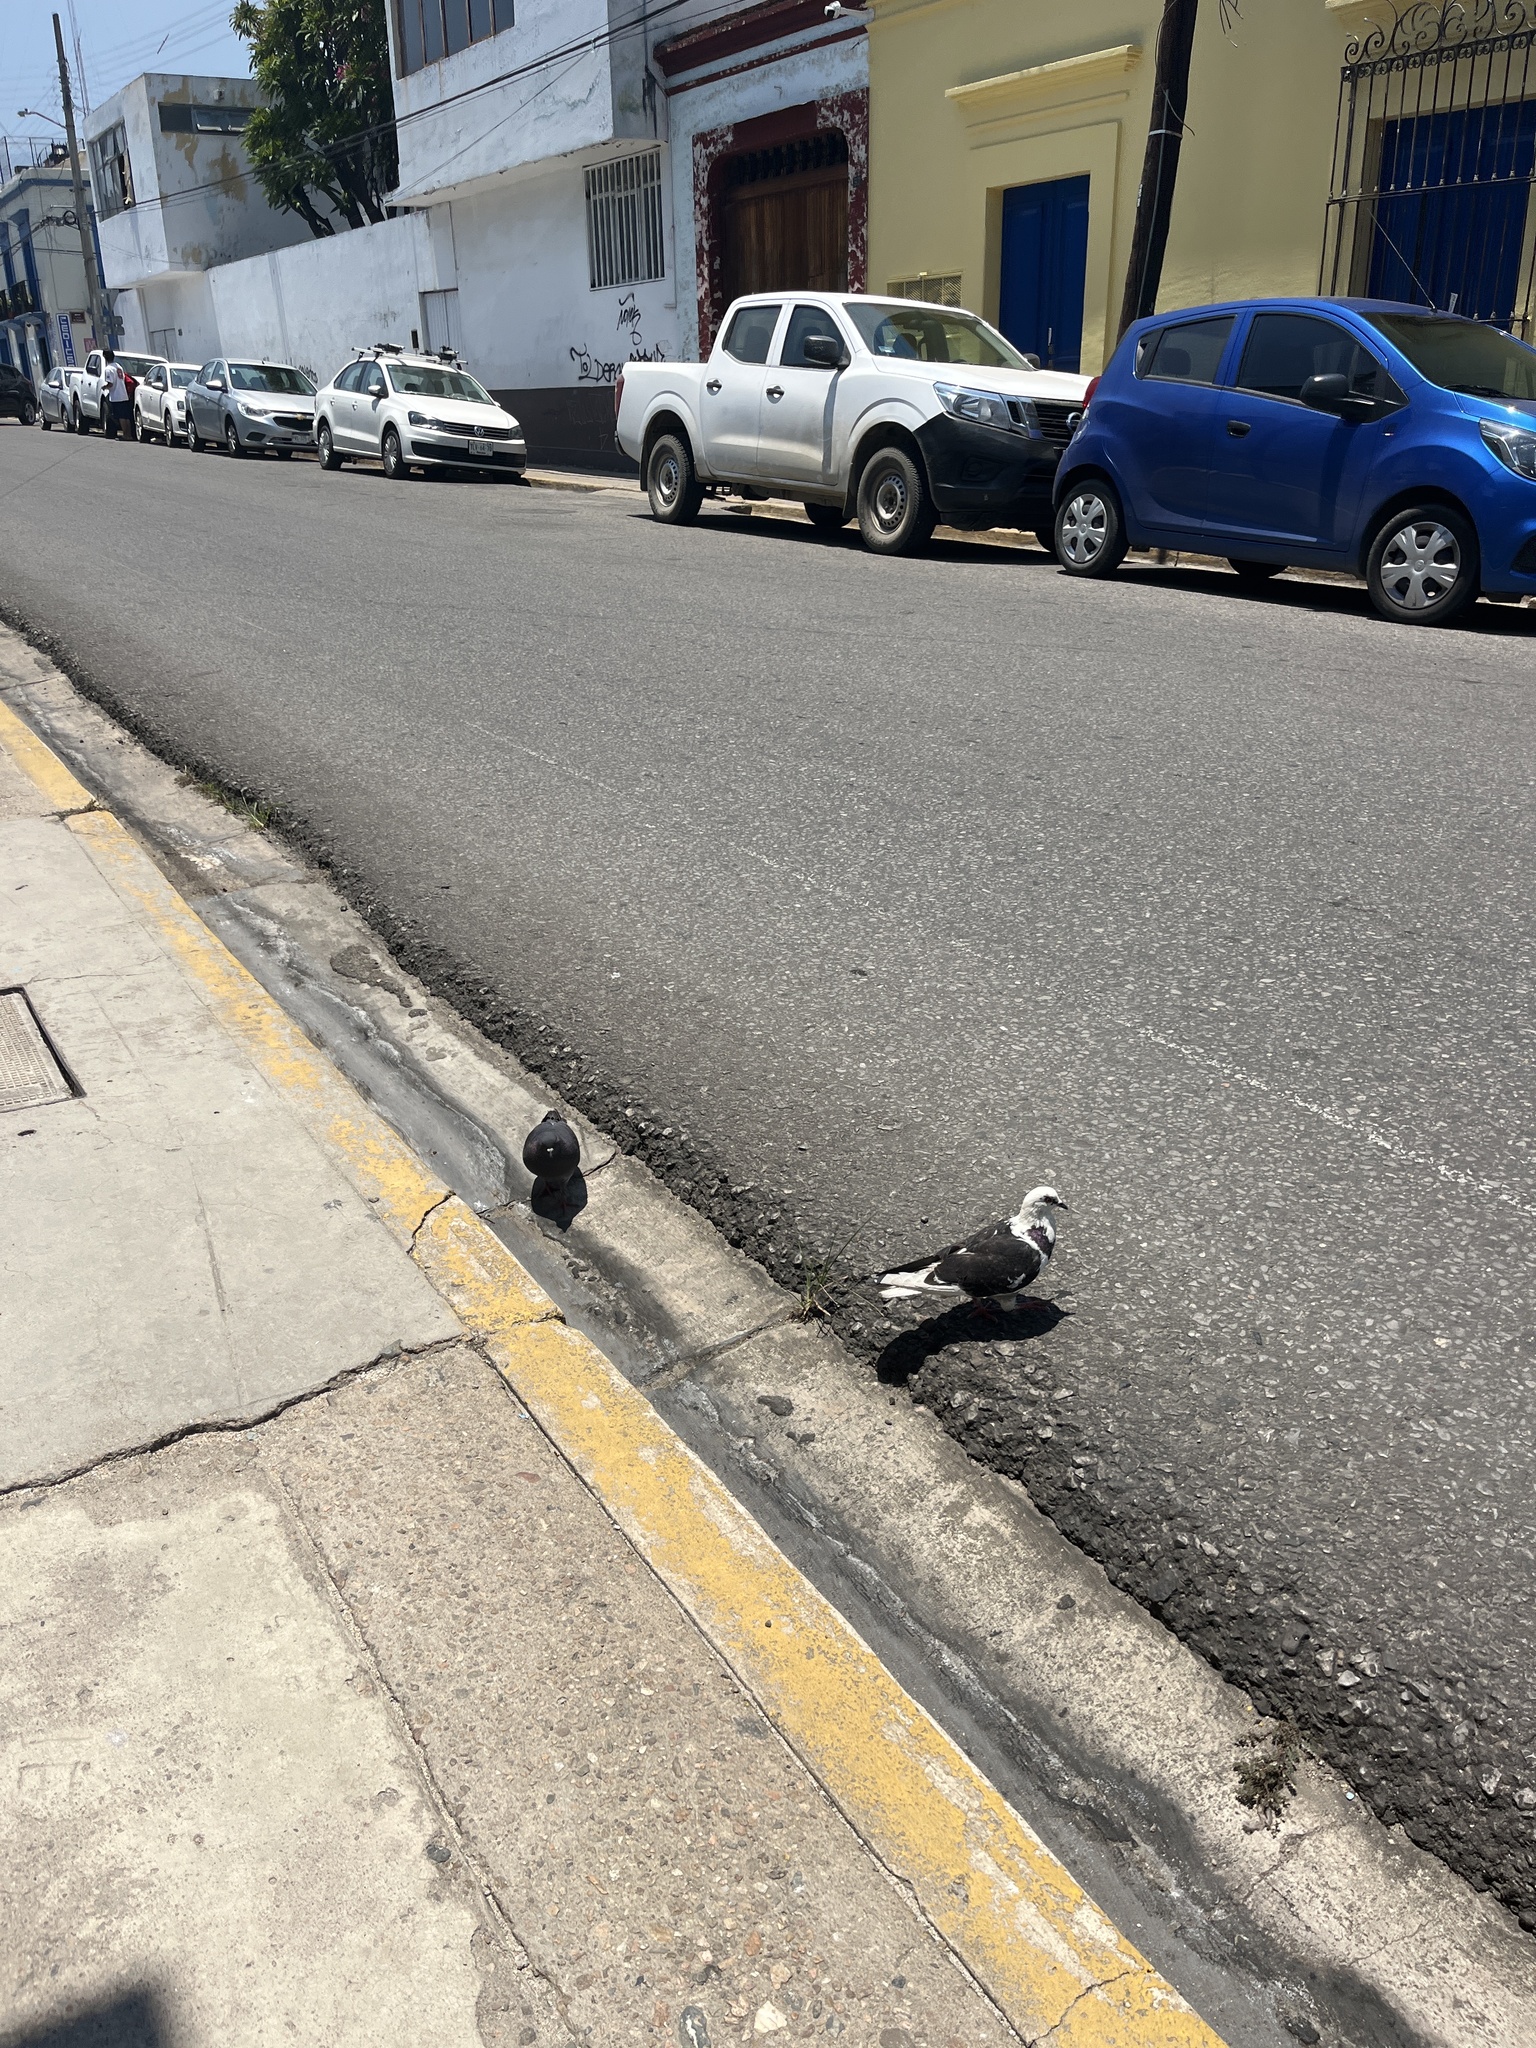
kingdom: Animalia
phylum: Chordata
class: Aves
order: Columbiformes
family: Columbidae
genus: Columba
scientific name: Columba livia
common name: Rock pigeon
